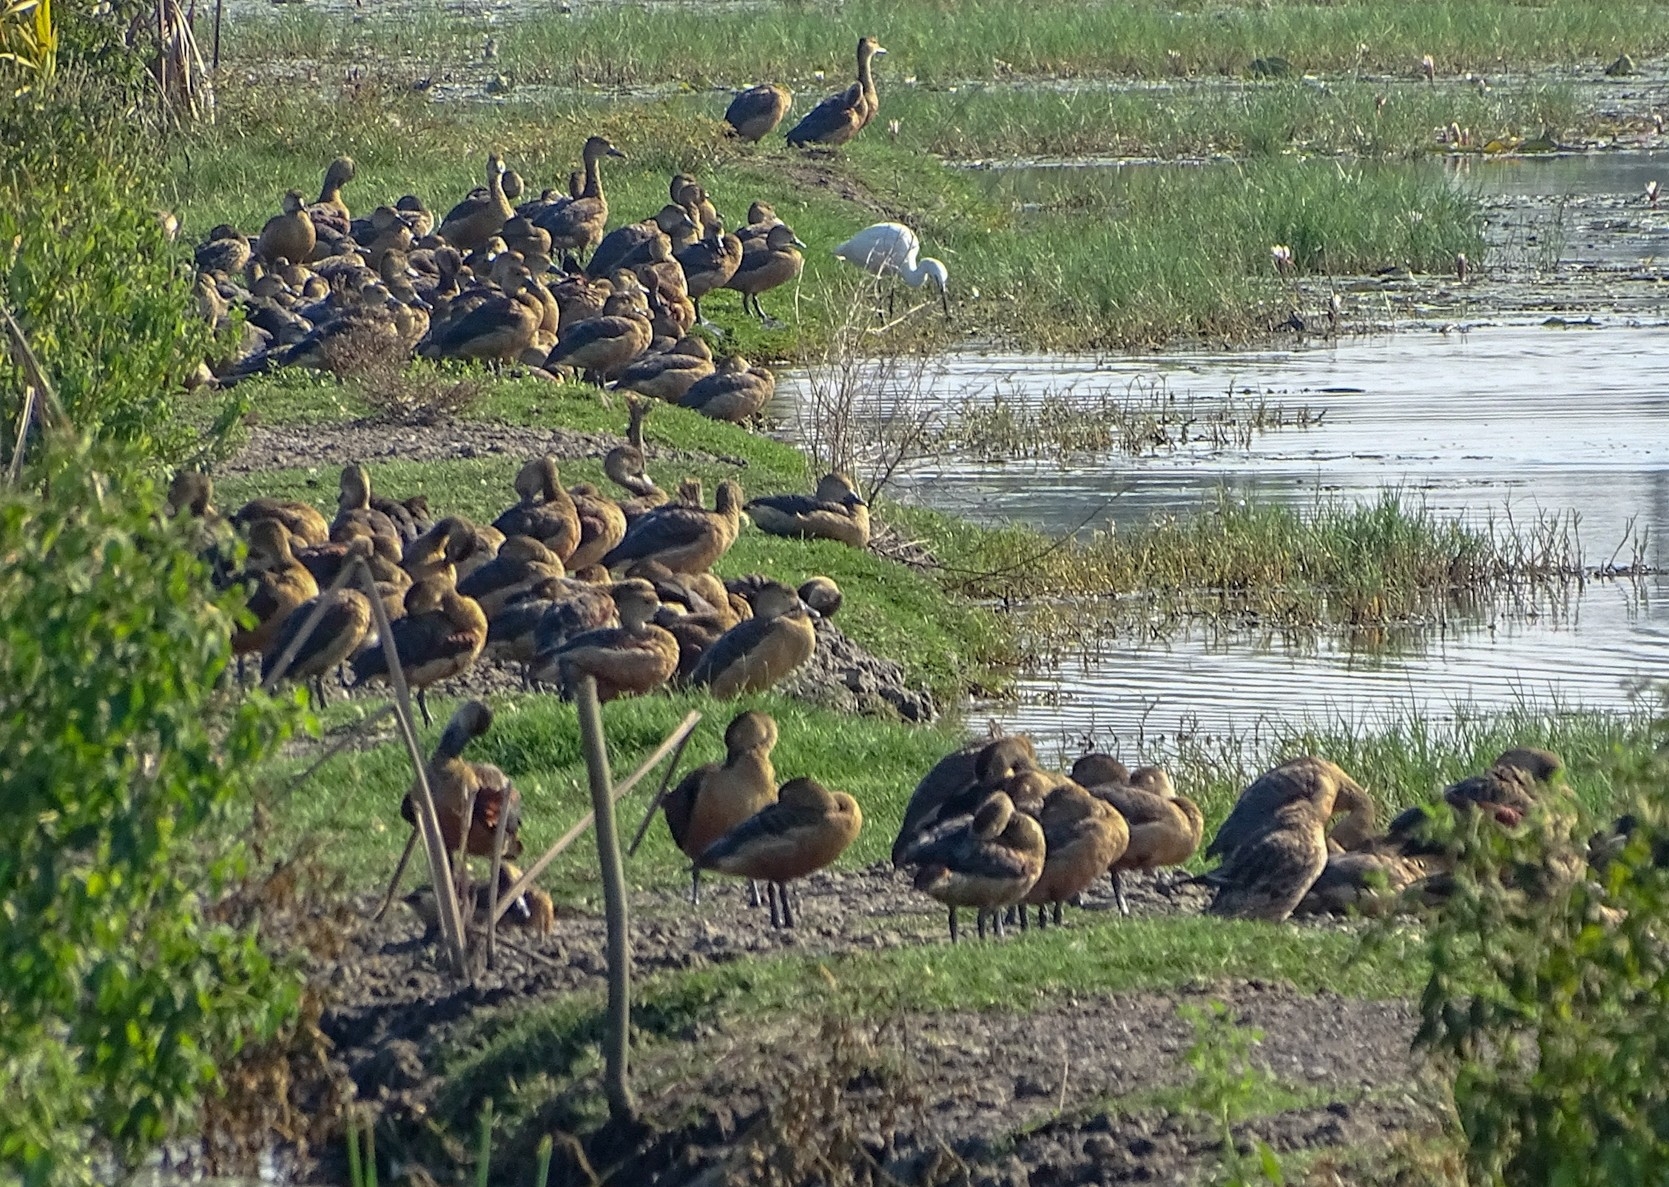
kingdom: Animalia
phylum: Chordata
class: Aves
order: Anseriformes
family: Anatidae
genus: Dendrocygna
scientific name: Dendrocygna javanica
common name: Lesser whistling-duck
